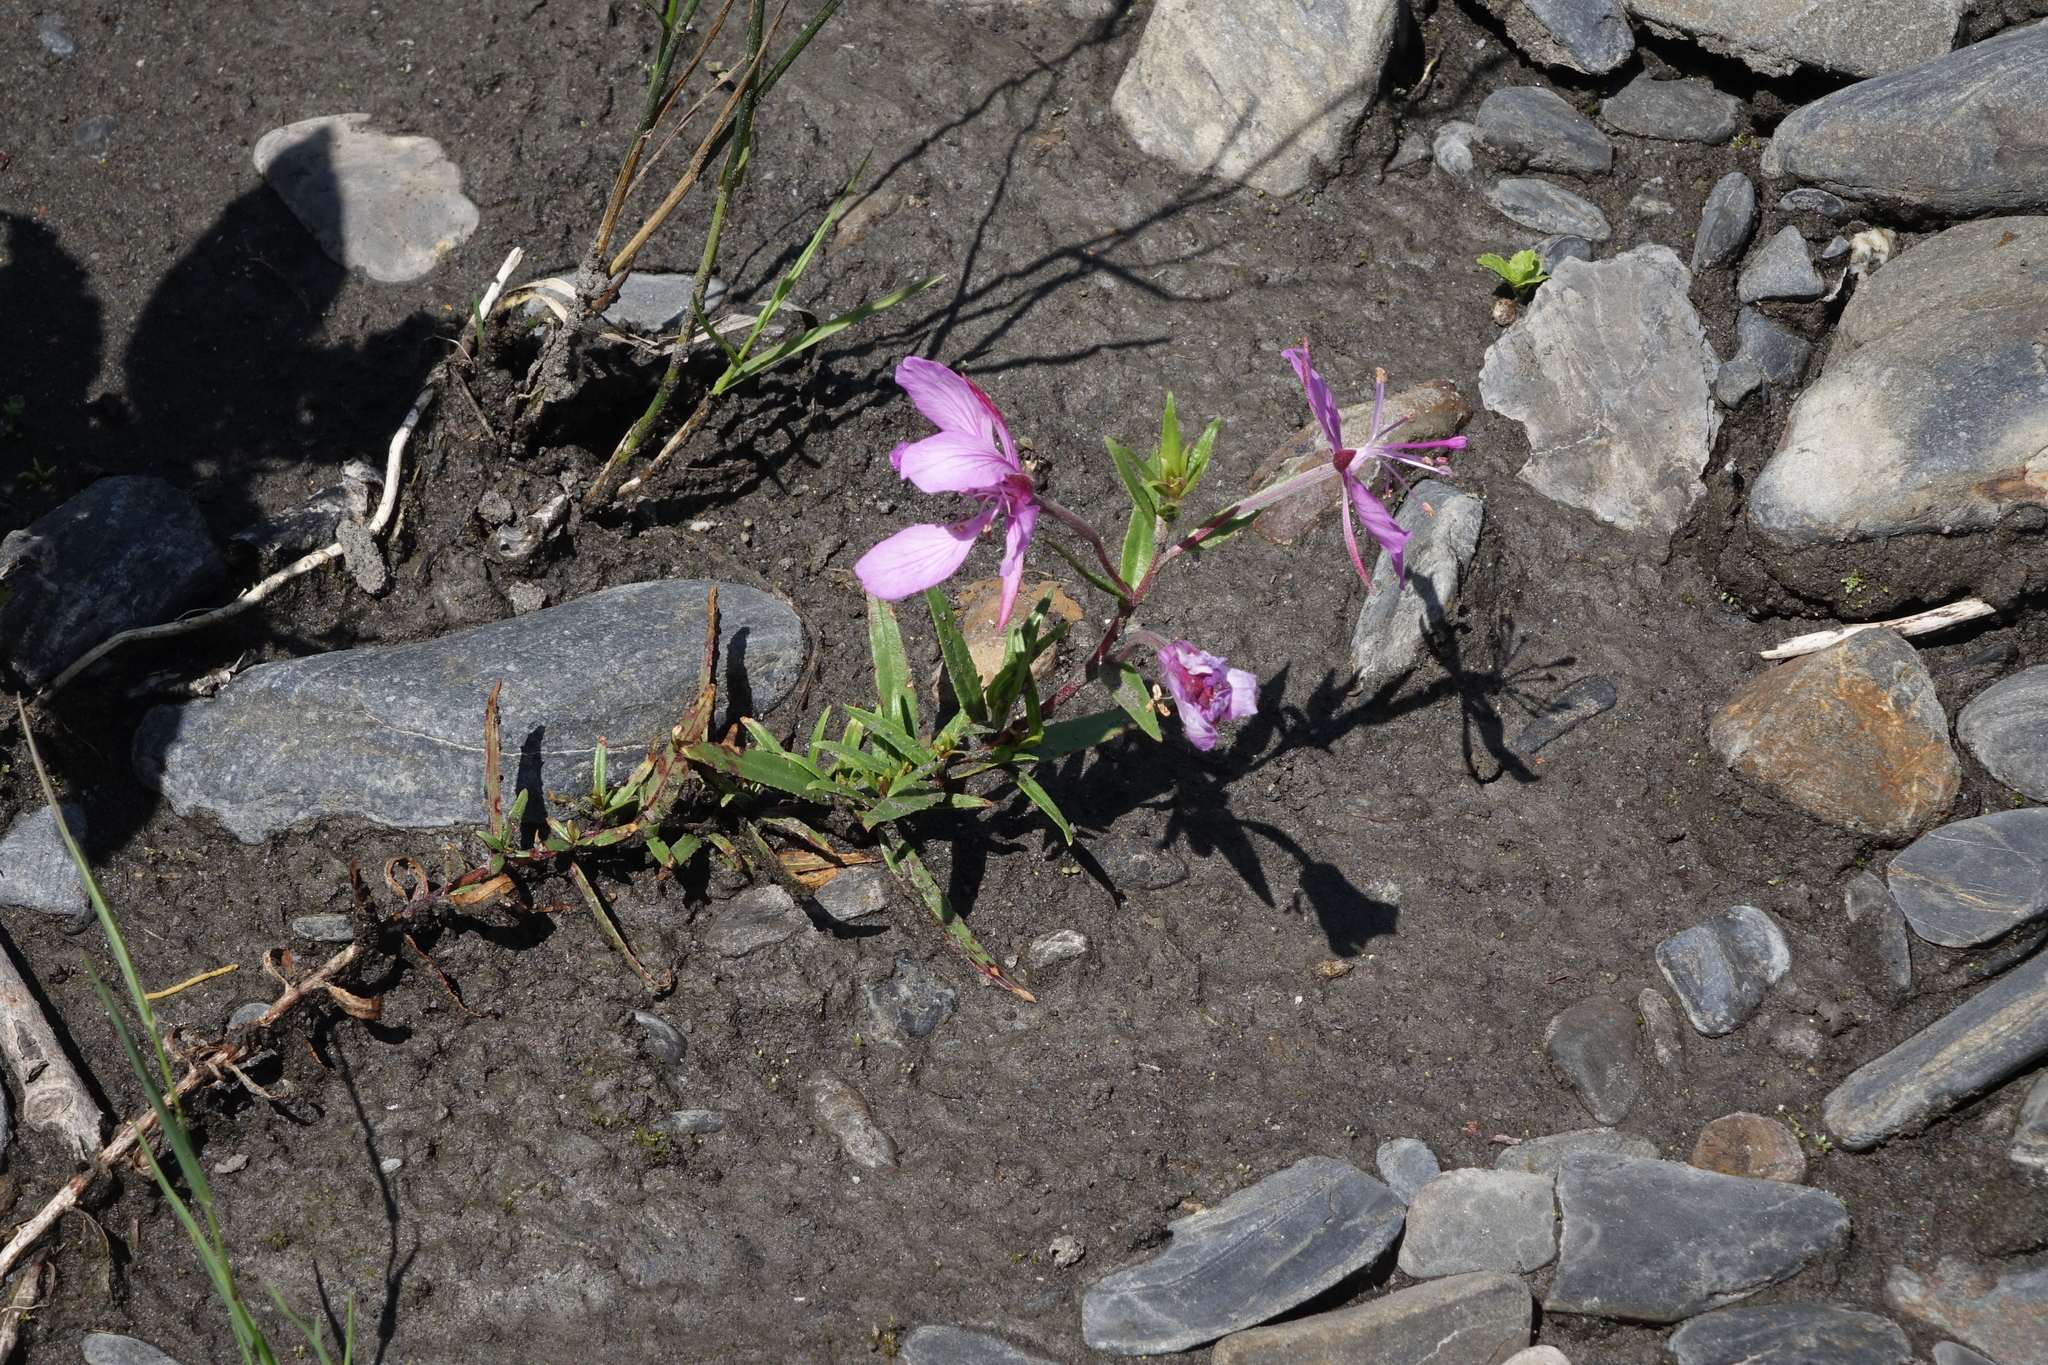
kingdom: Plantae
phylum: Tracheophyta
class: Magnoliopsida
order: Myrtales
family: Onagraceae
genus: Chamaenerion
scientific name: Chamaenerion colchicum
